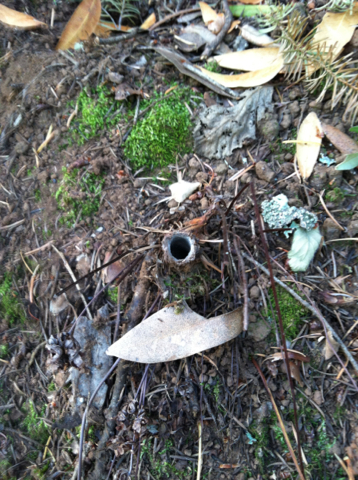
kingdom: Animalia
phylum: Arthropoda
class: Arachnida
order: Araneae
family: Antrodiaetidae
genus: Atypoides
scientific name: Atypoides riversi
